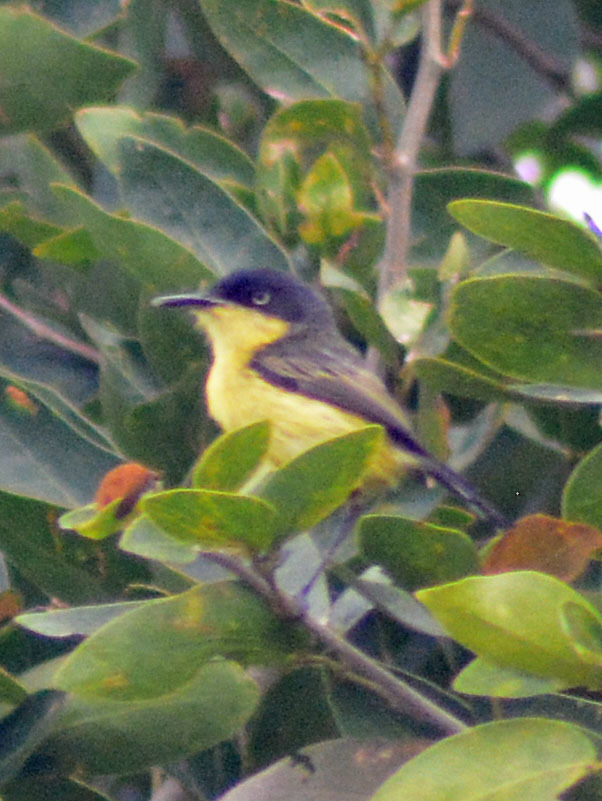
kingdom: Animalia
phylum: Chordata
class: Aves
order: Passeriformes
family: Tyrannidae
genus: Todirostrum
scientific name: Todirostrum cinereum
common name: Common tody-flycatcher
